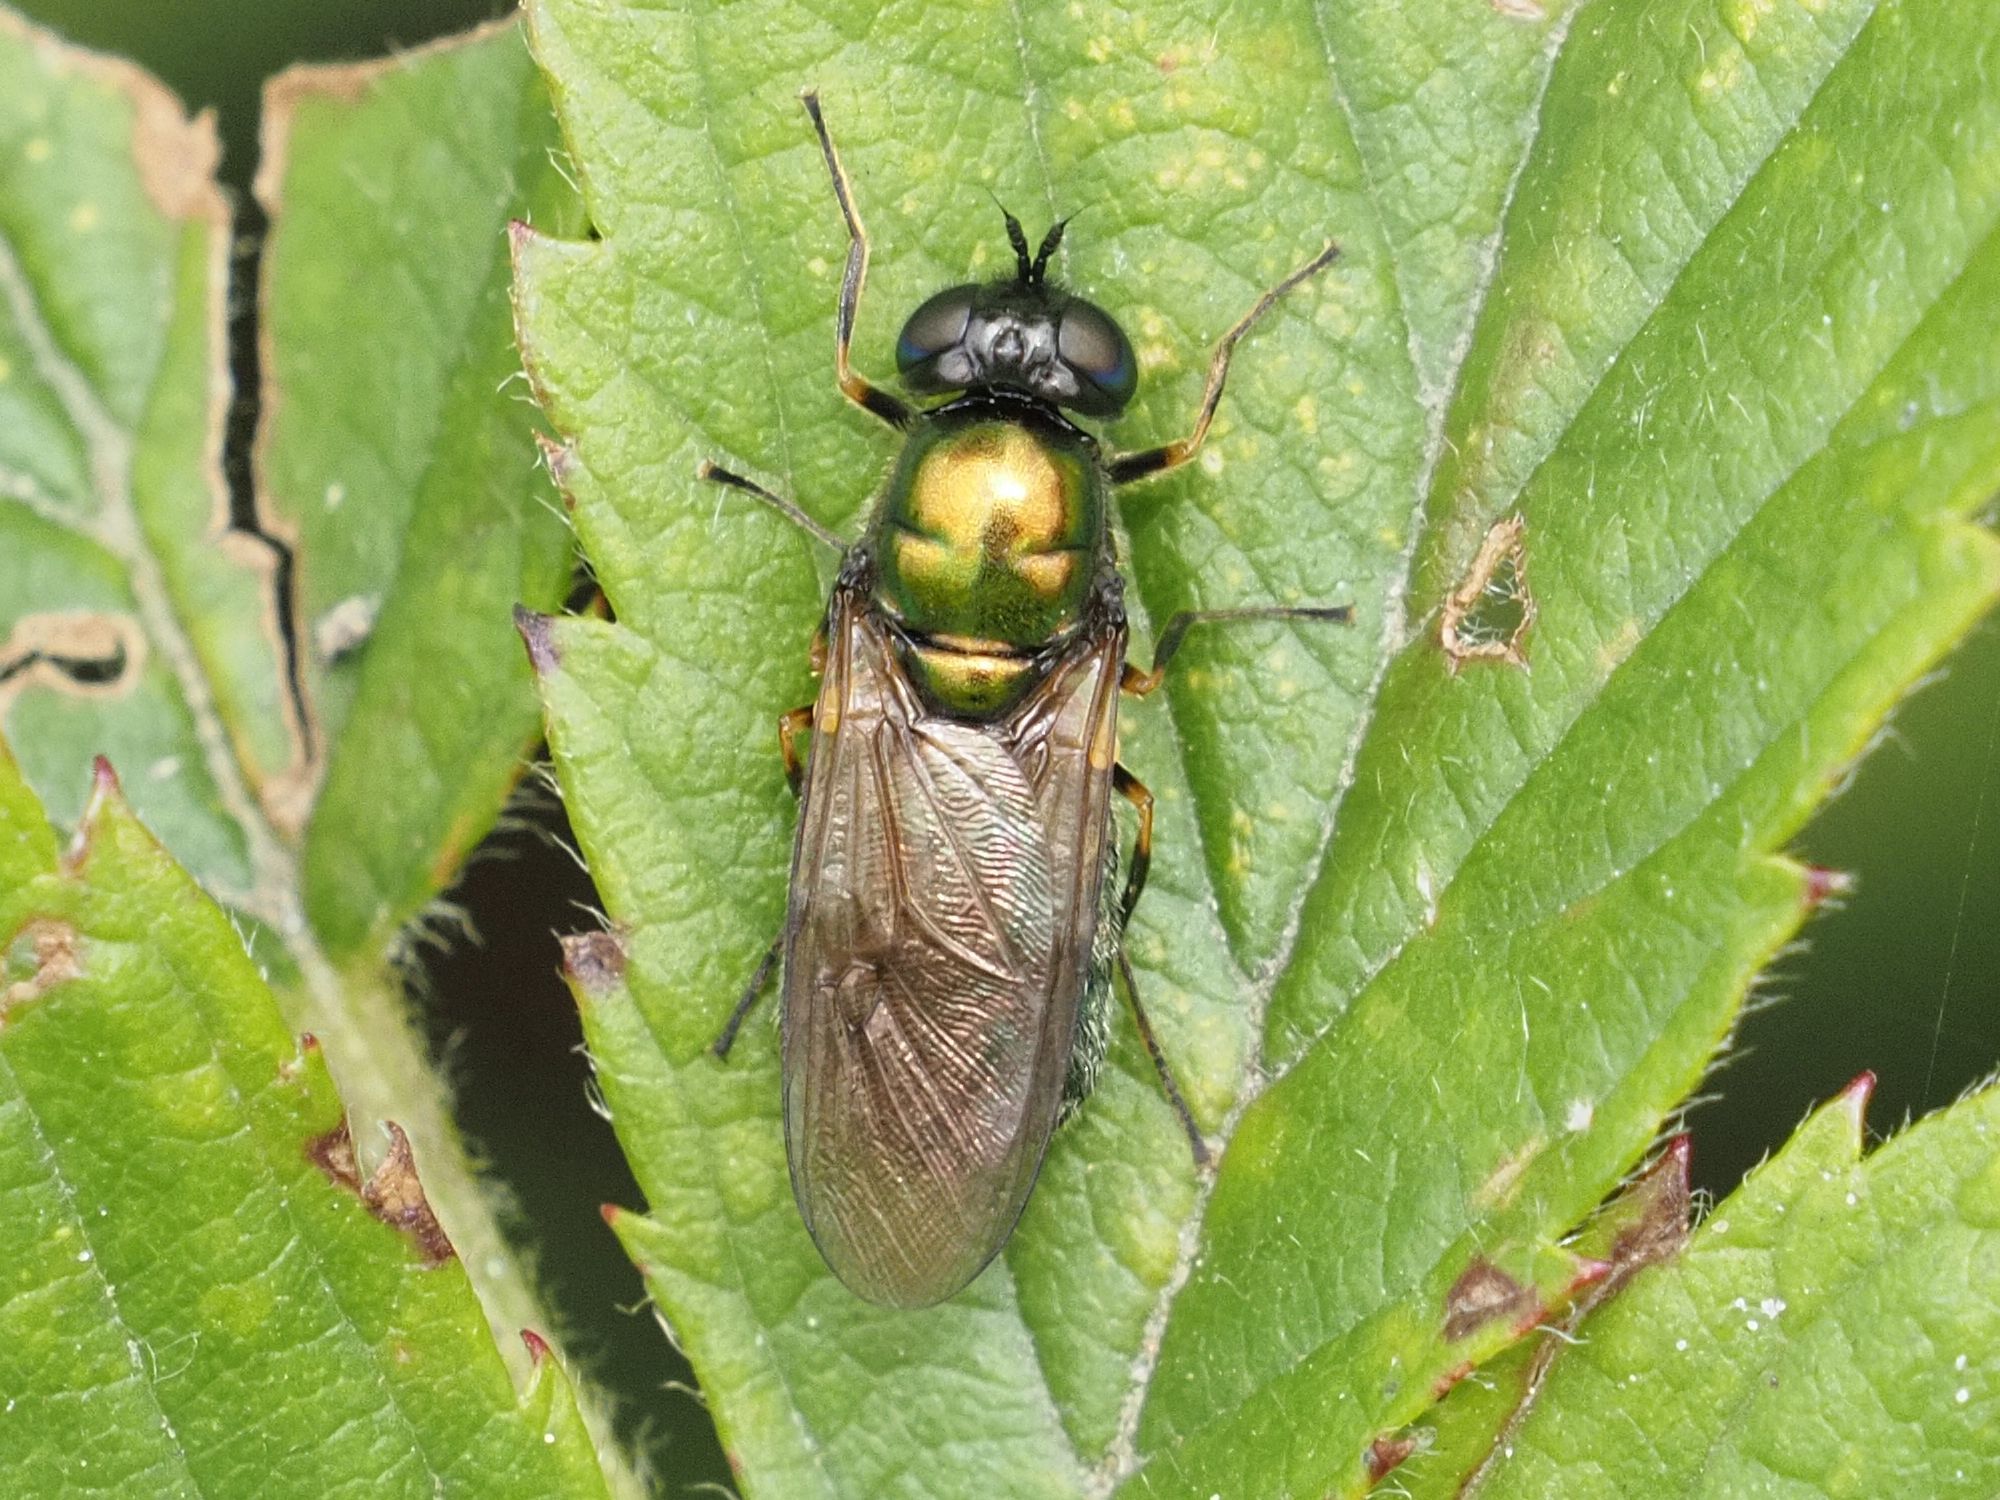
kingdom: Animalia
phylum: Arthropoda
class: Insecta
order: Diptera
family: Stratiomyidae
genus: Chloromyia
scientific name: Chloromyia formosa
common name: Soldier fly
